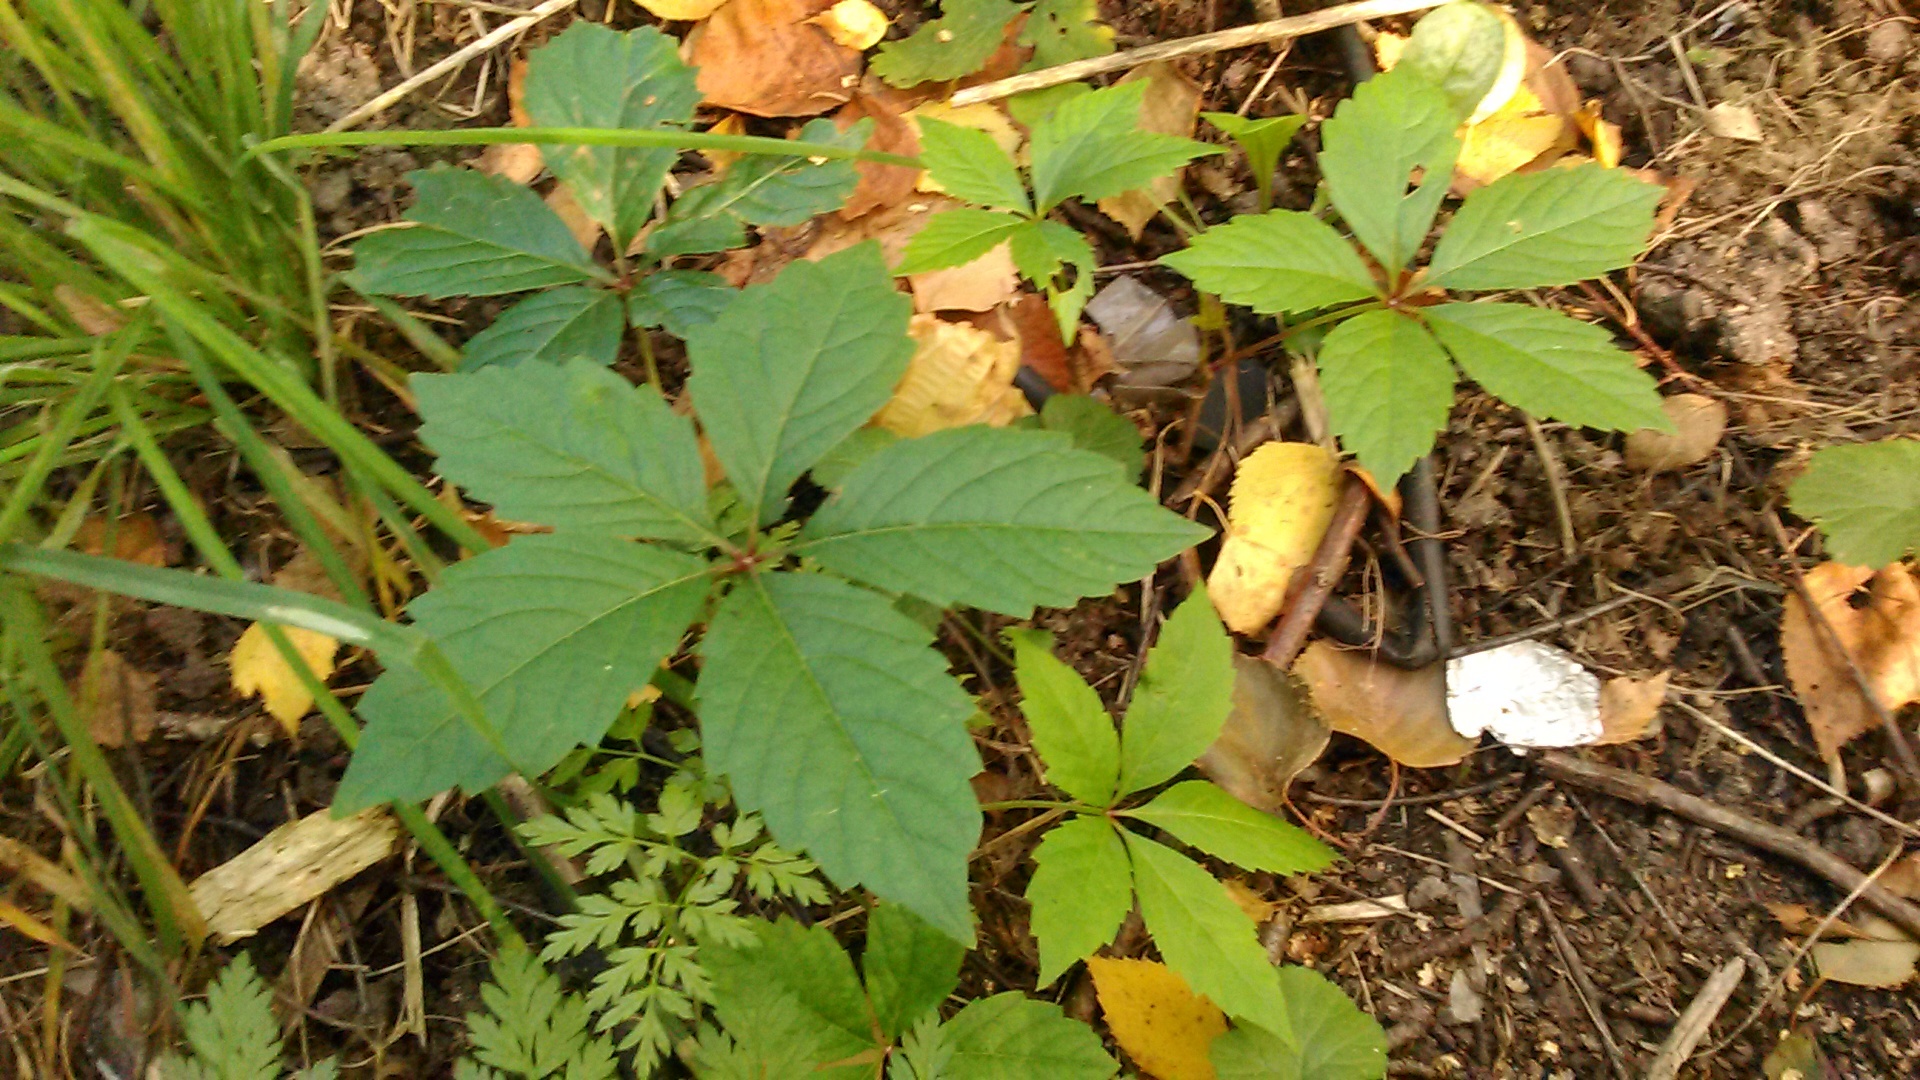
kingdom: Plantae
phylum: Tracheophyta
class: Magnoliopsida
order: Vitales
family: Vitaceae
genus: Parthenocissus
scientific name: Parthenocissus inserta
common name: False virginia-creeper
